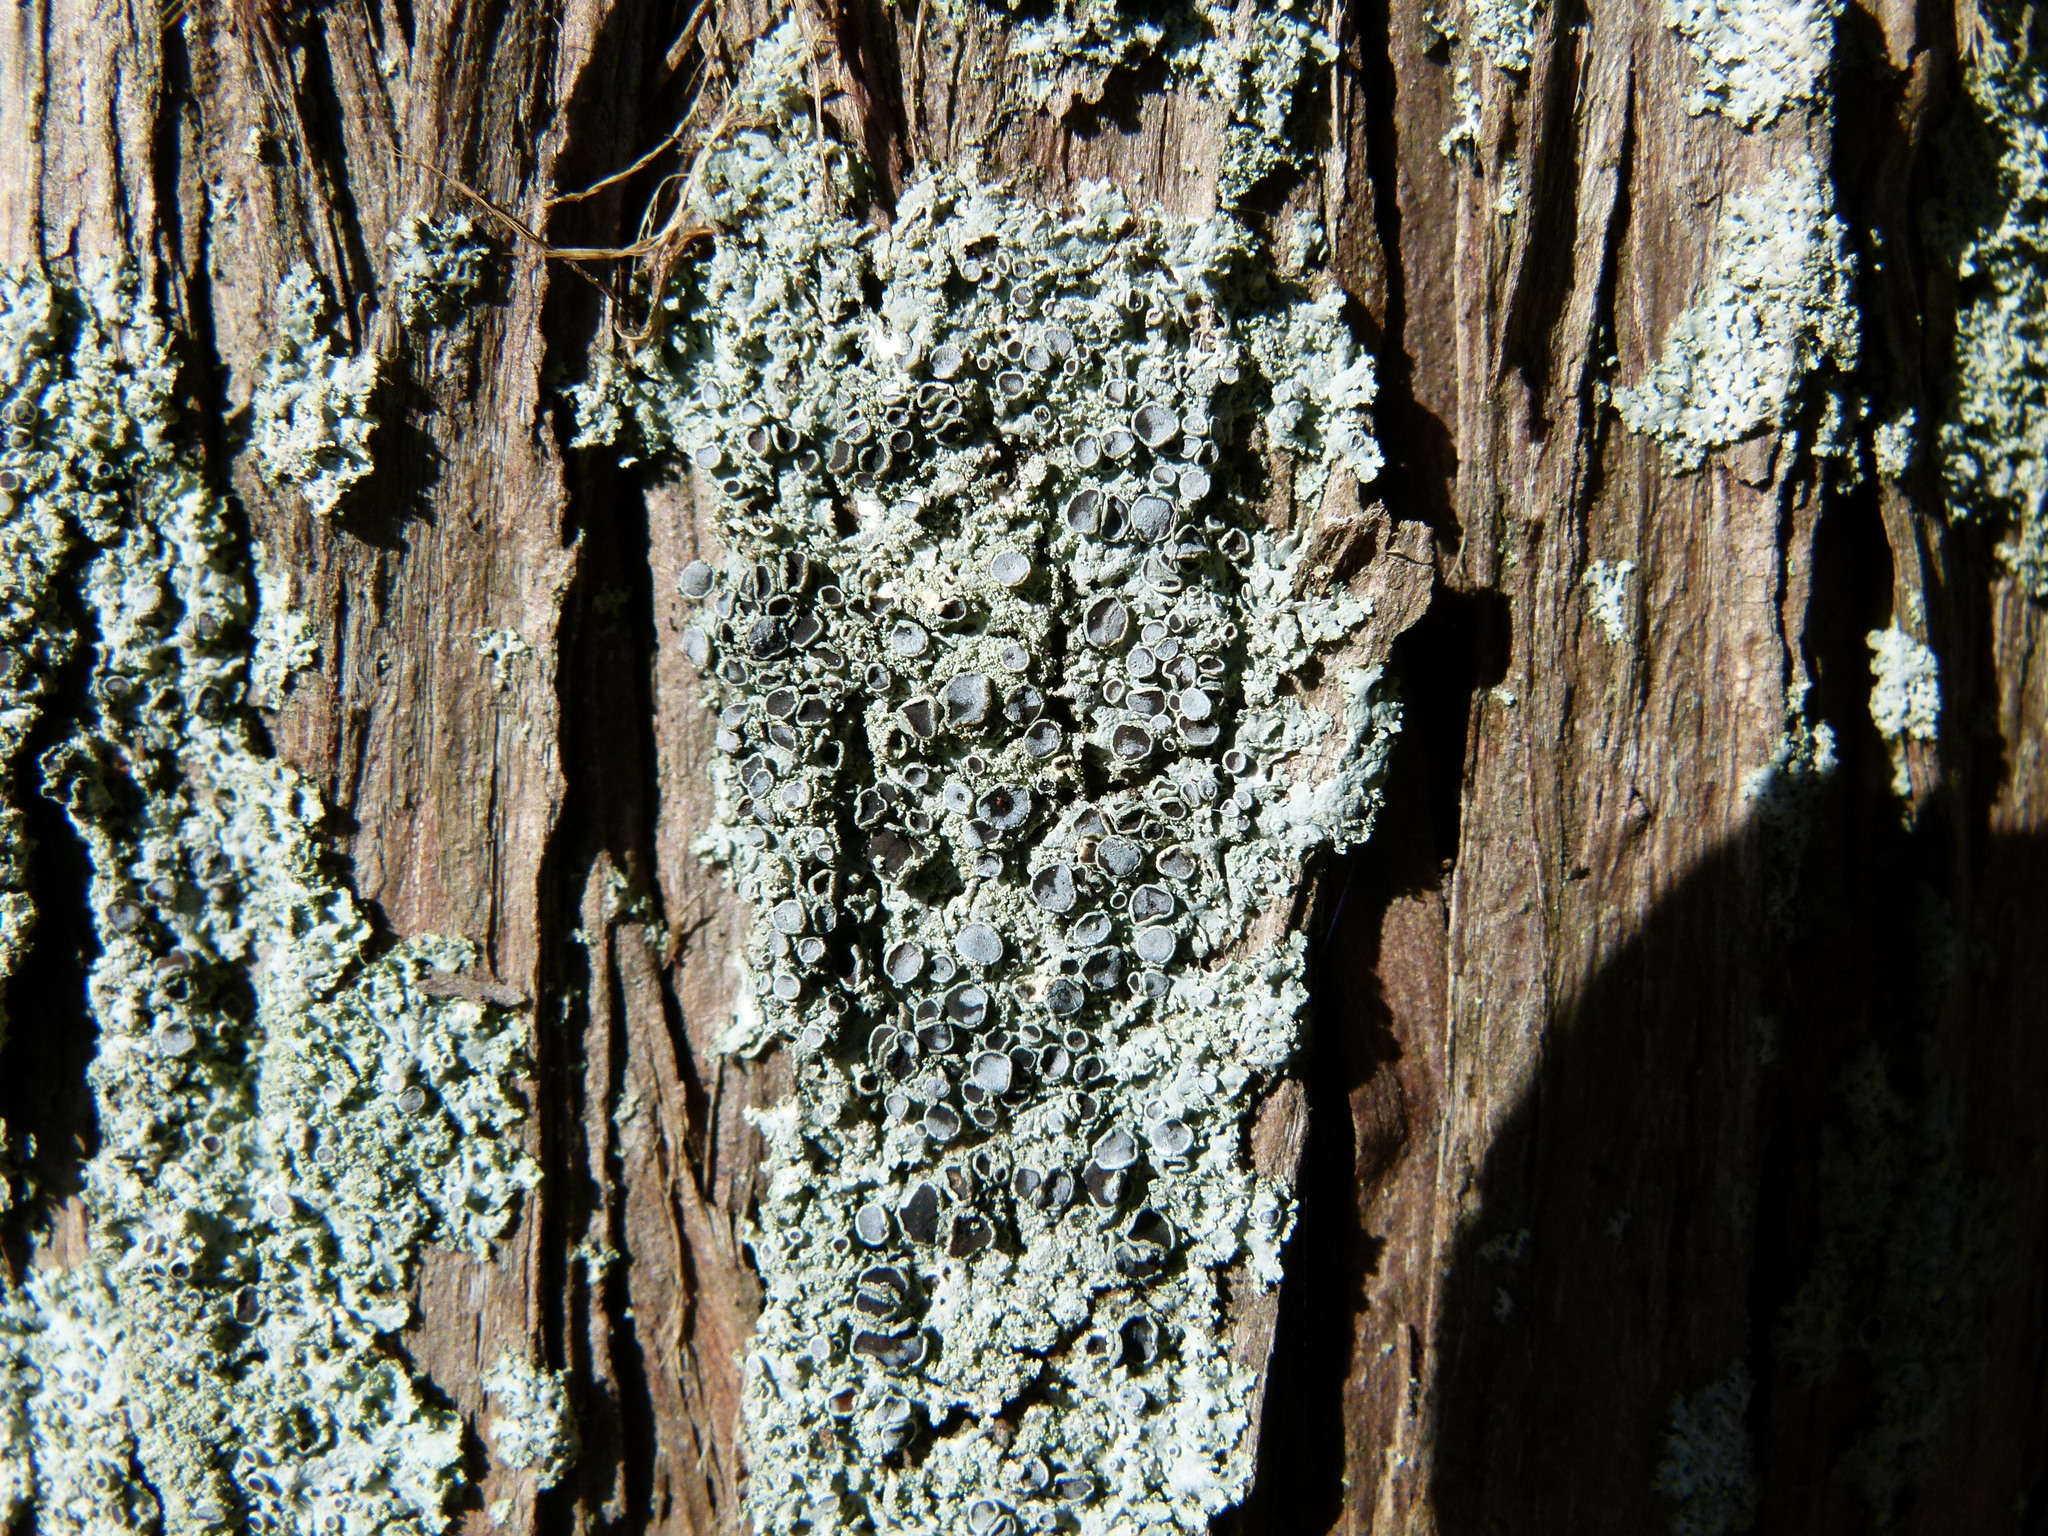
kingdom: Fungi
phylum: Ascomycota
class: Lecanoromycetes
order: Caliciales
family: Physciaceae
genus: Physcia
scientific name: Physcia millegrana
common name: Rosette lichen
